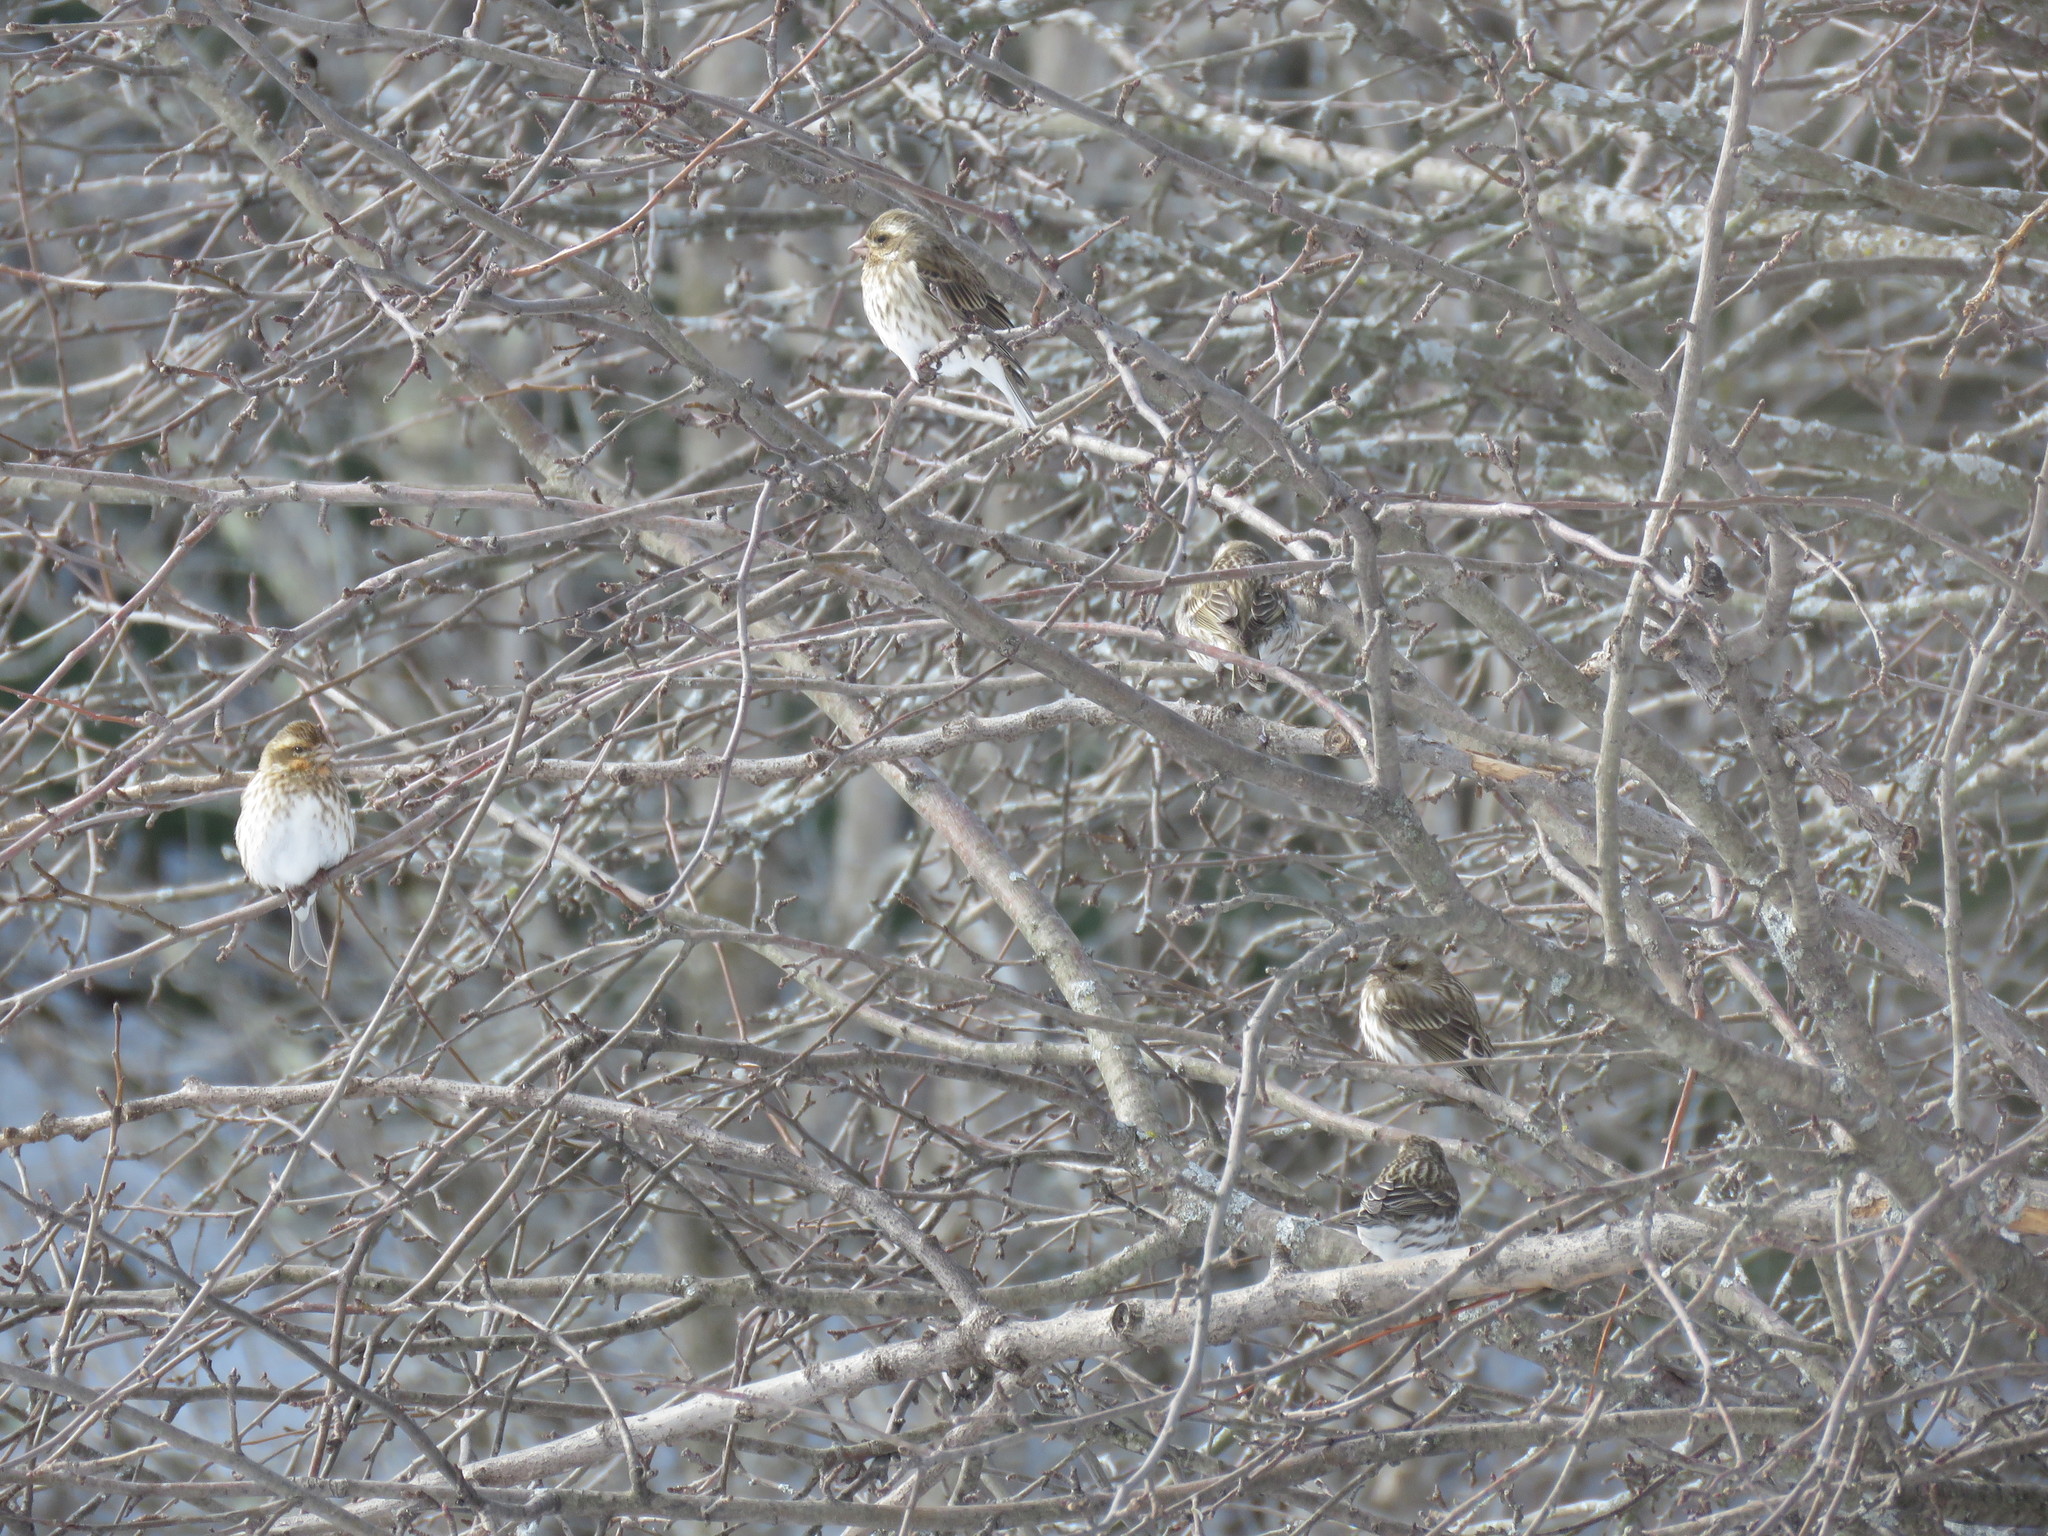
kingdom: Animalia
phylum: Chordata
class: Aves
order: Passeriformes
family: Fringillidae
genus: Haemorhous
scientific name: Haemorhous purpureus
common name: Purple finch
